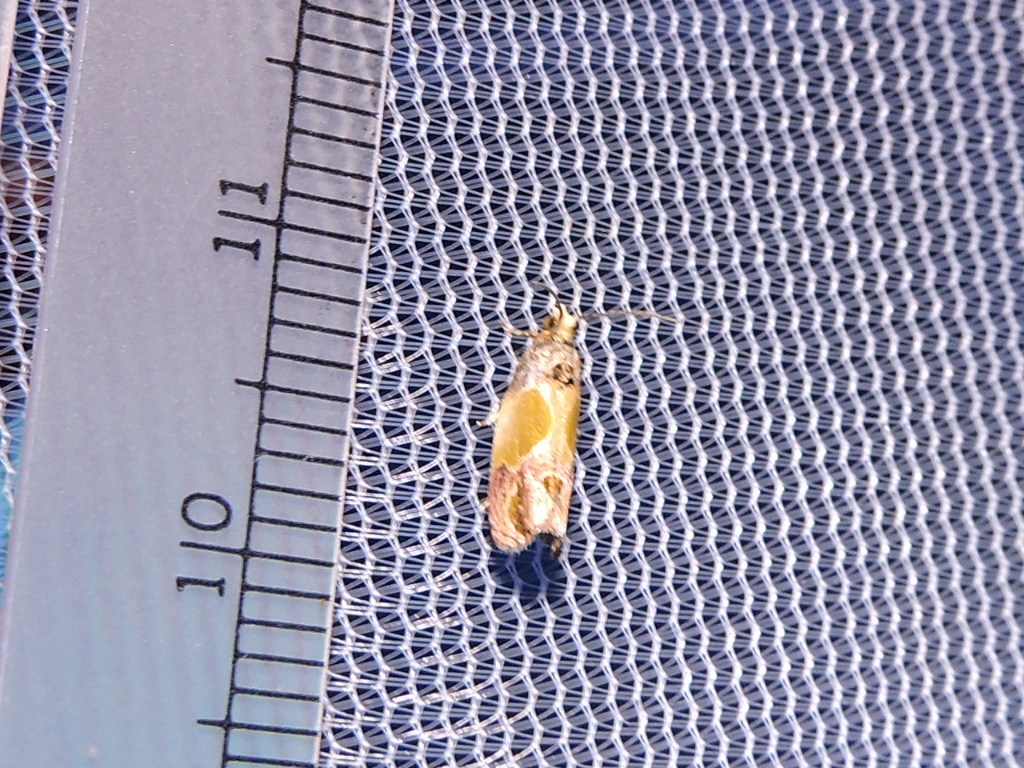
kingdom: Animalia
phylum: Arthropoda
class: Insecta
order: Lepidoptera
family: Tortricidae
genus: Eumarozia
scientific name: Eumarozia malachitana
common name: Sculptured moth
